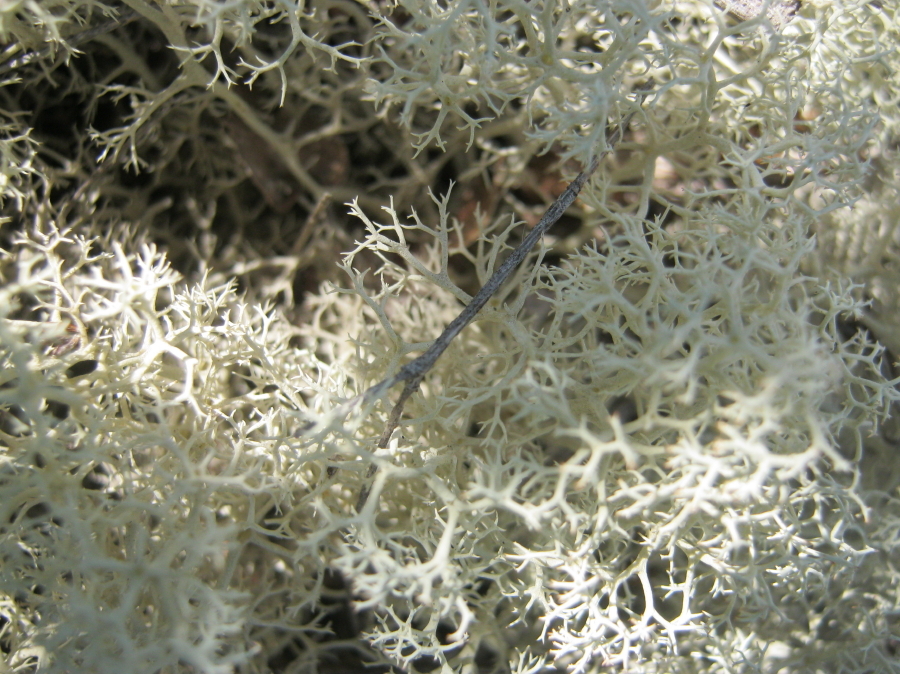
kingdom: Fungi
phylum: Ascomycota
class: Lecanoromycetes
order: Lecanorales
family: Cladoniaceae
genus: Cladonia
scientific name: Cladonia confusa
